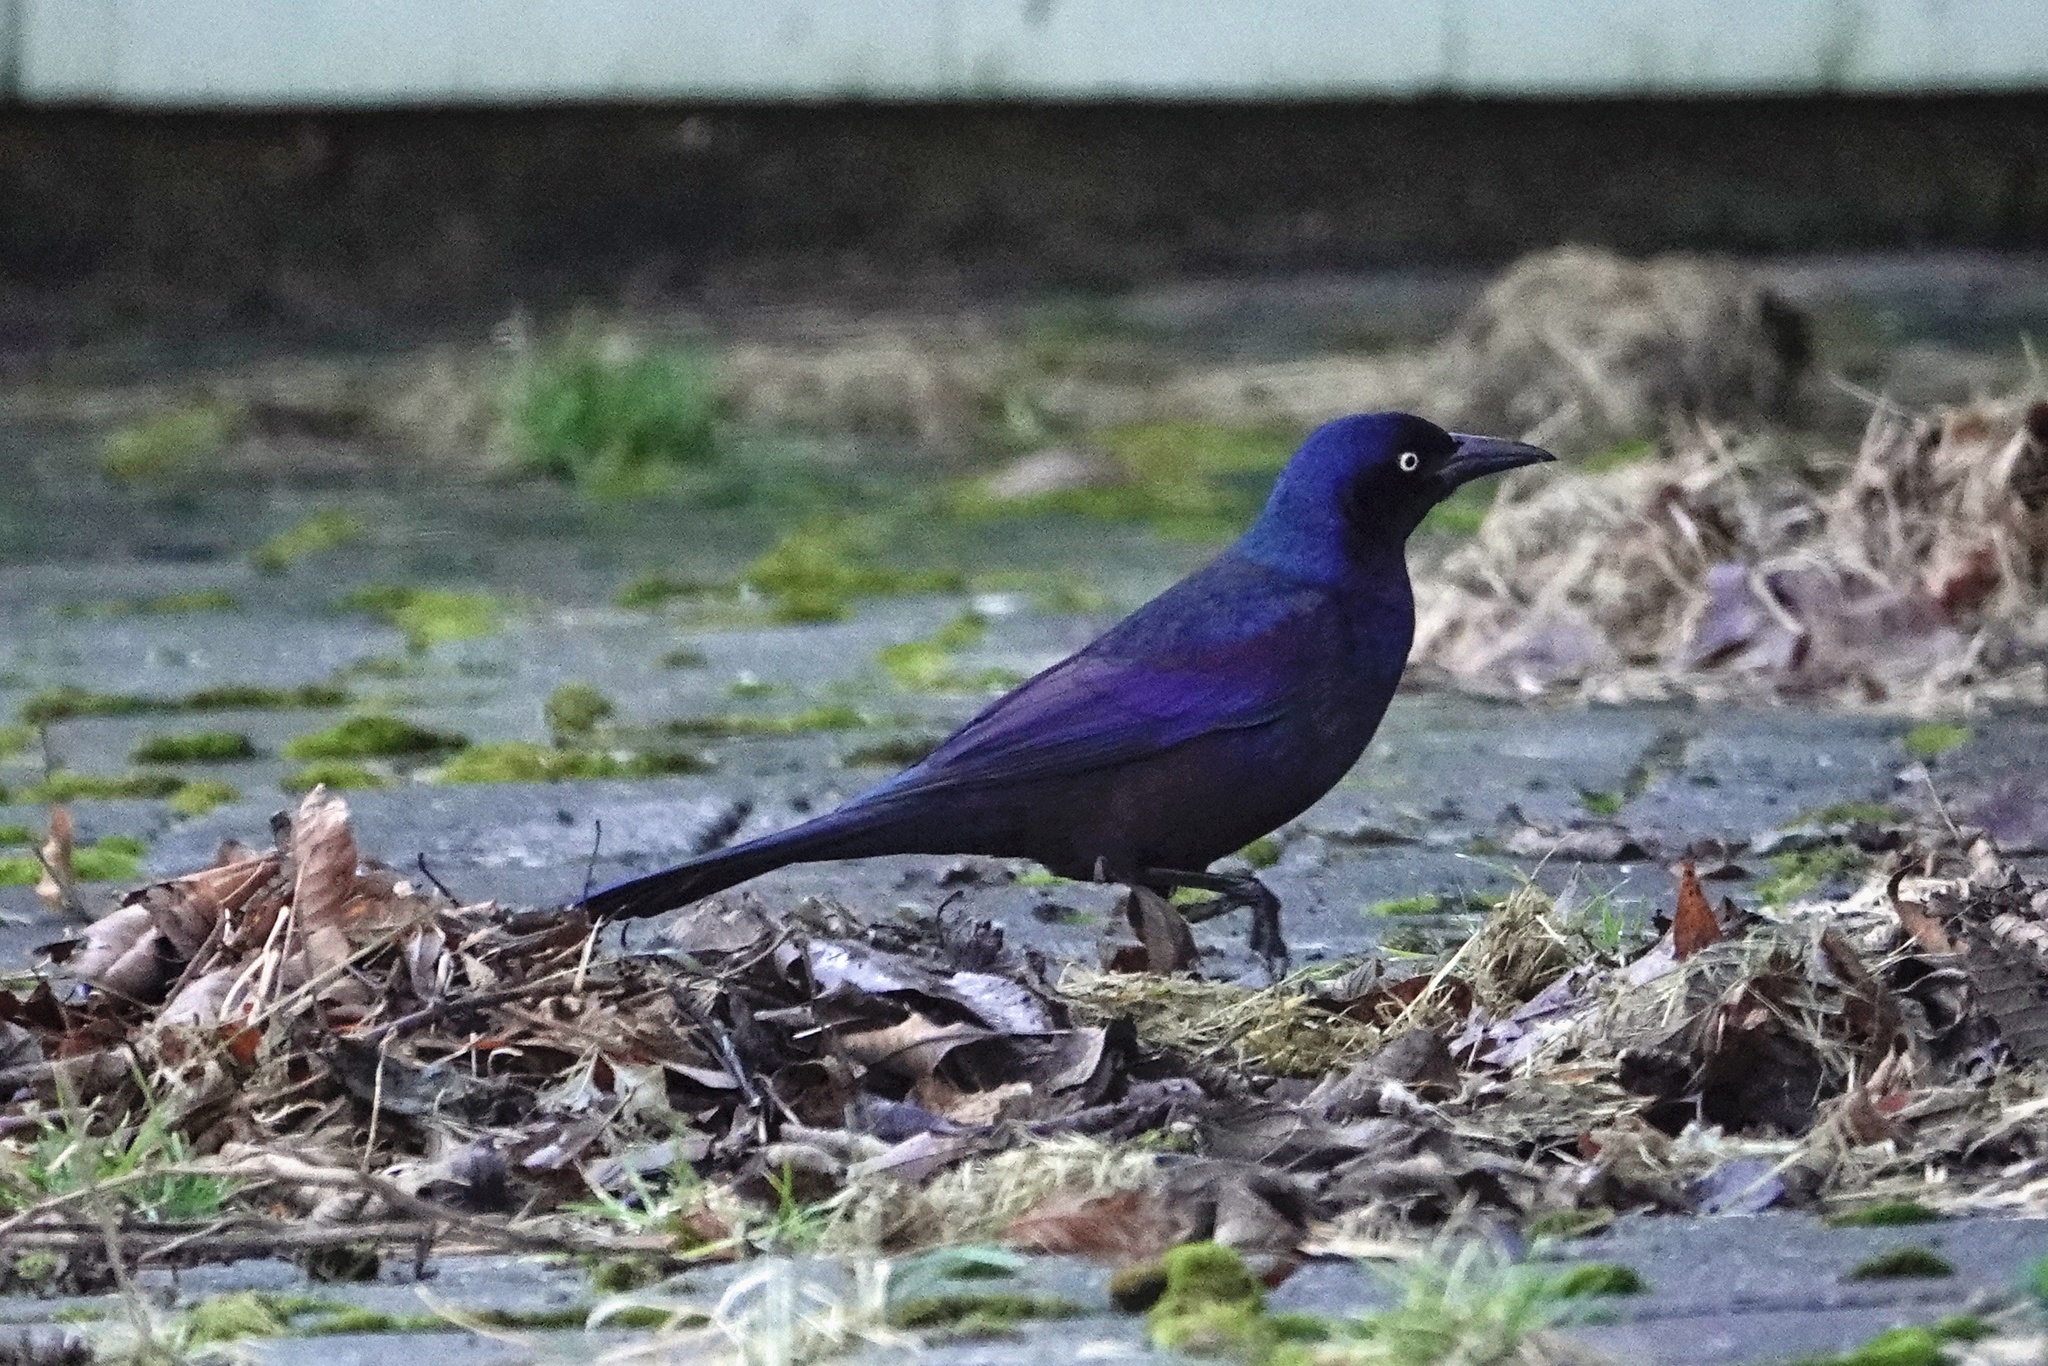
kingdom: Animalia
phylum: Chordata
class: Aves
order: Passeriformes
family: Icteridae
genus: Quiscalus
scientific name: Quiscalus quiscula
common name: Common grackle
